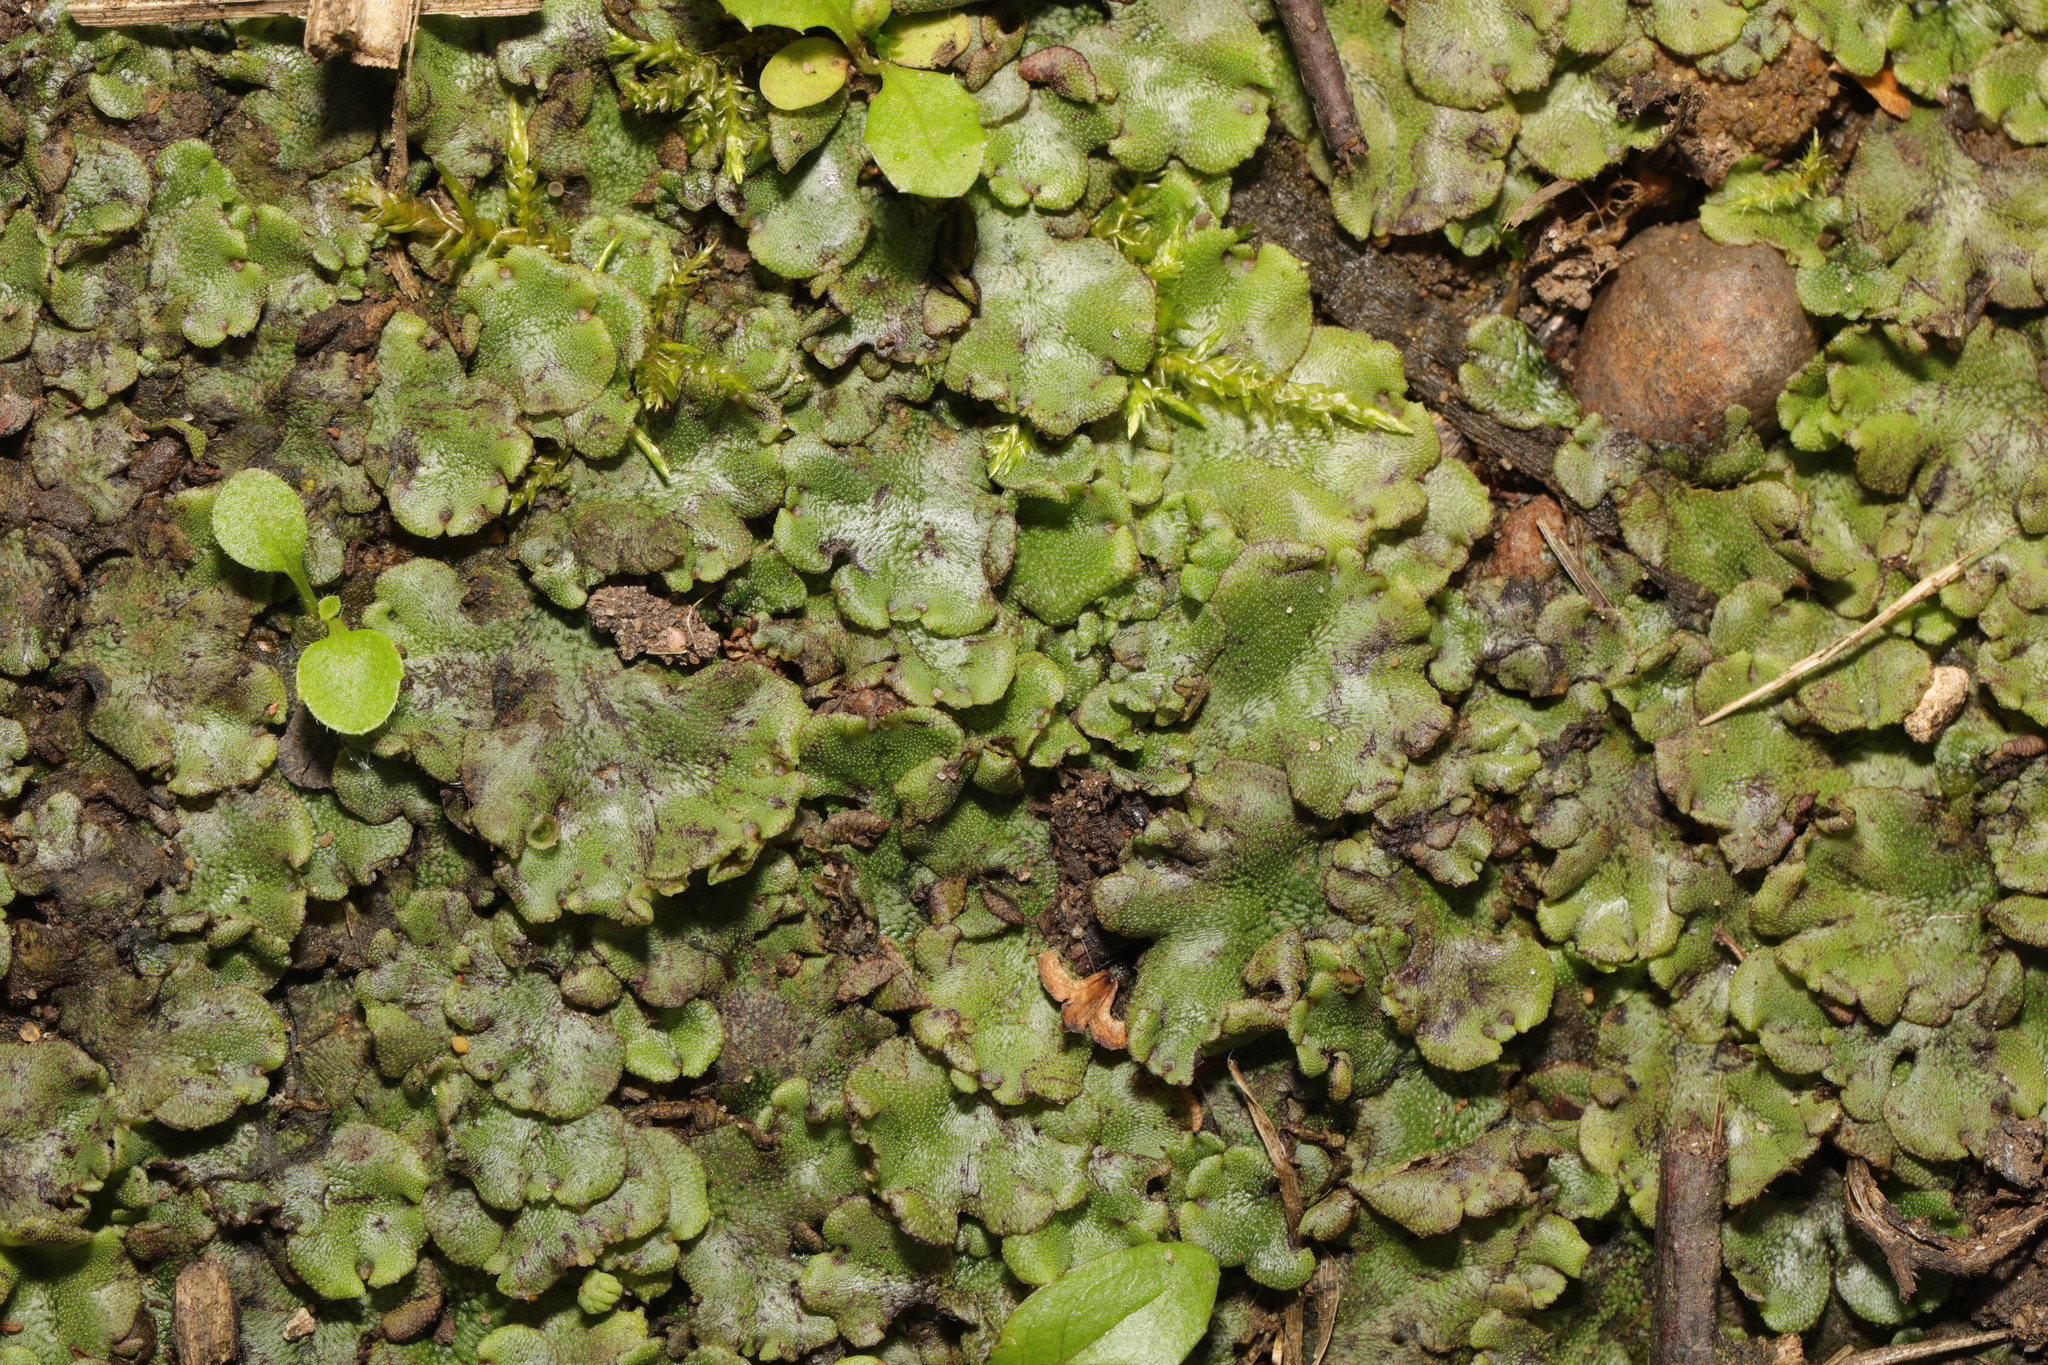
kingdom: Plantae
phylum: Marchantiophyta
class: Marchantiopsida
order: Marchantiales
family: Marchantiaceae
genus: Marchantia
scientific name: Marchantia polymorpha
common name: Common liverwort
